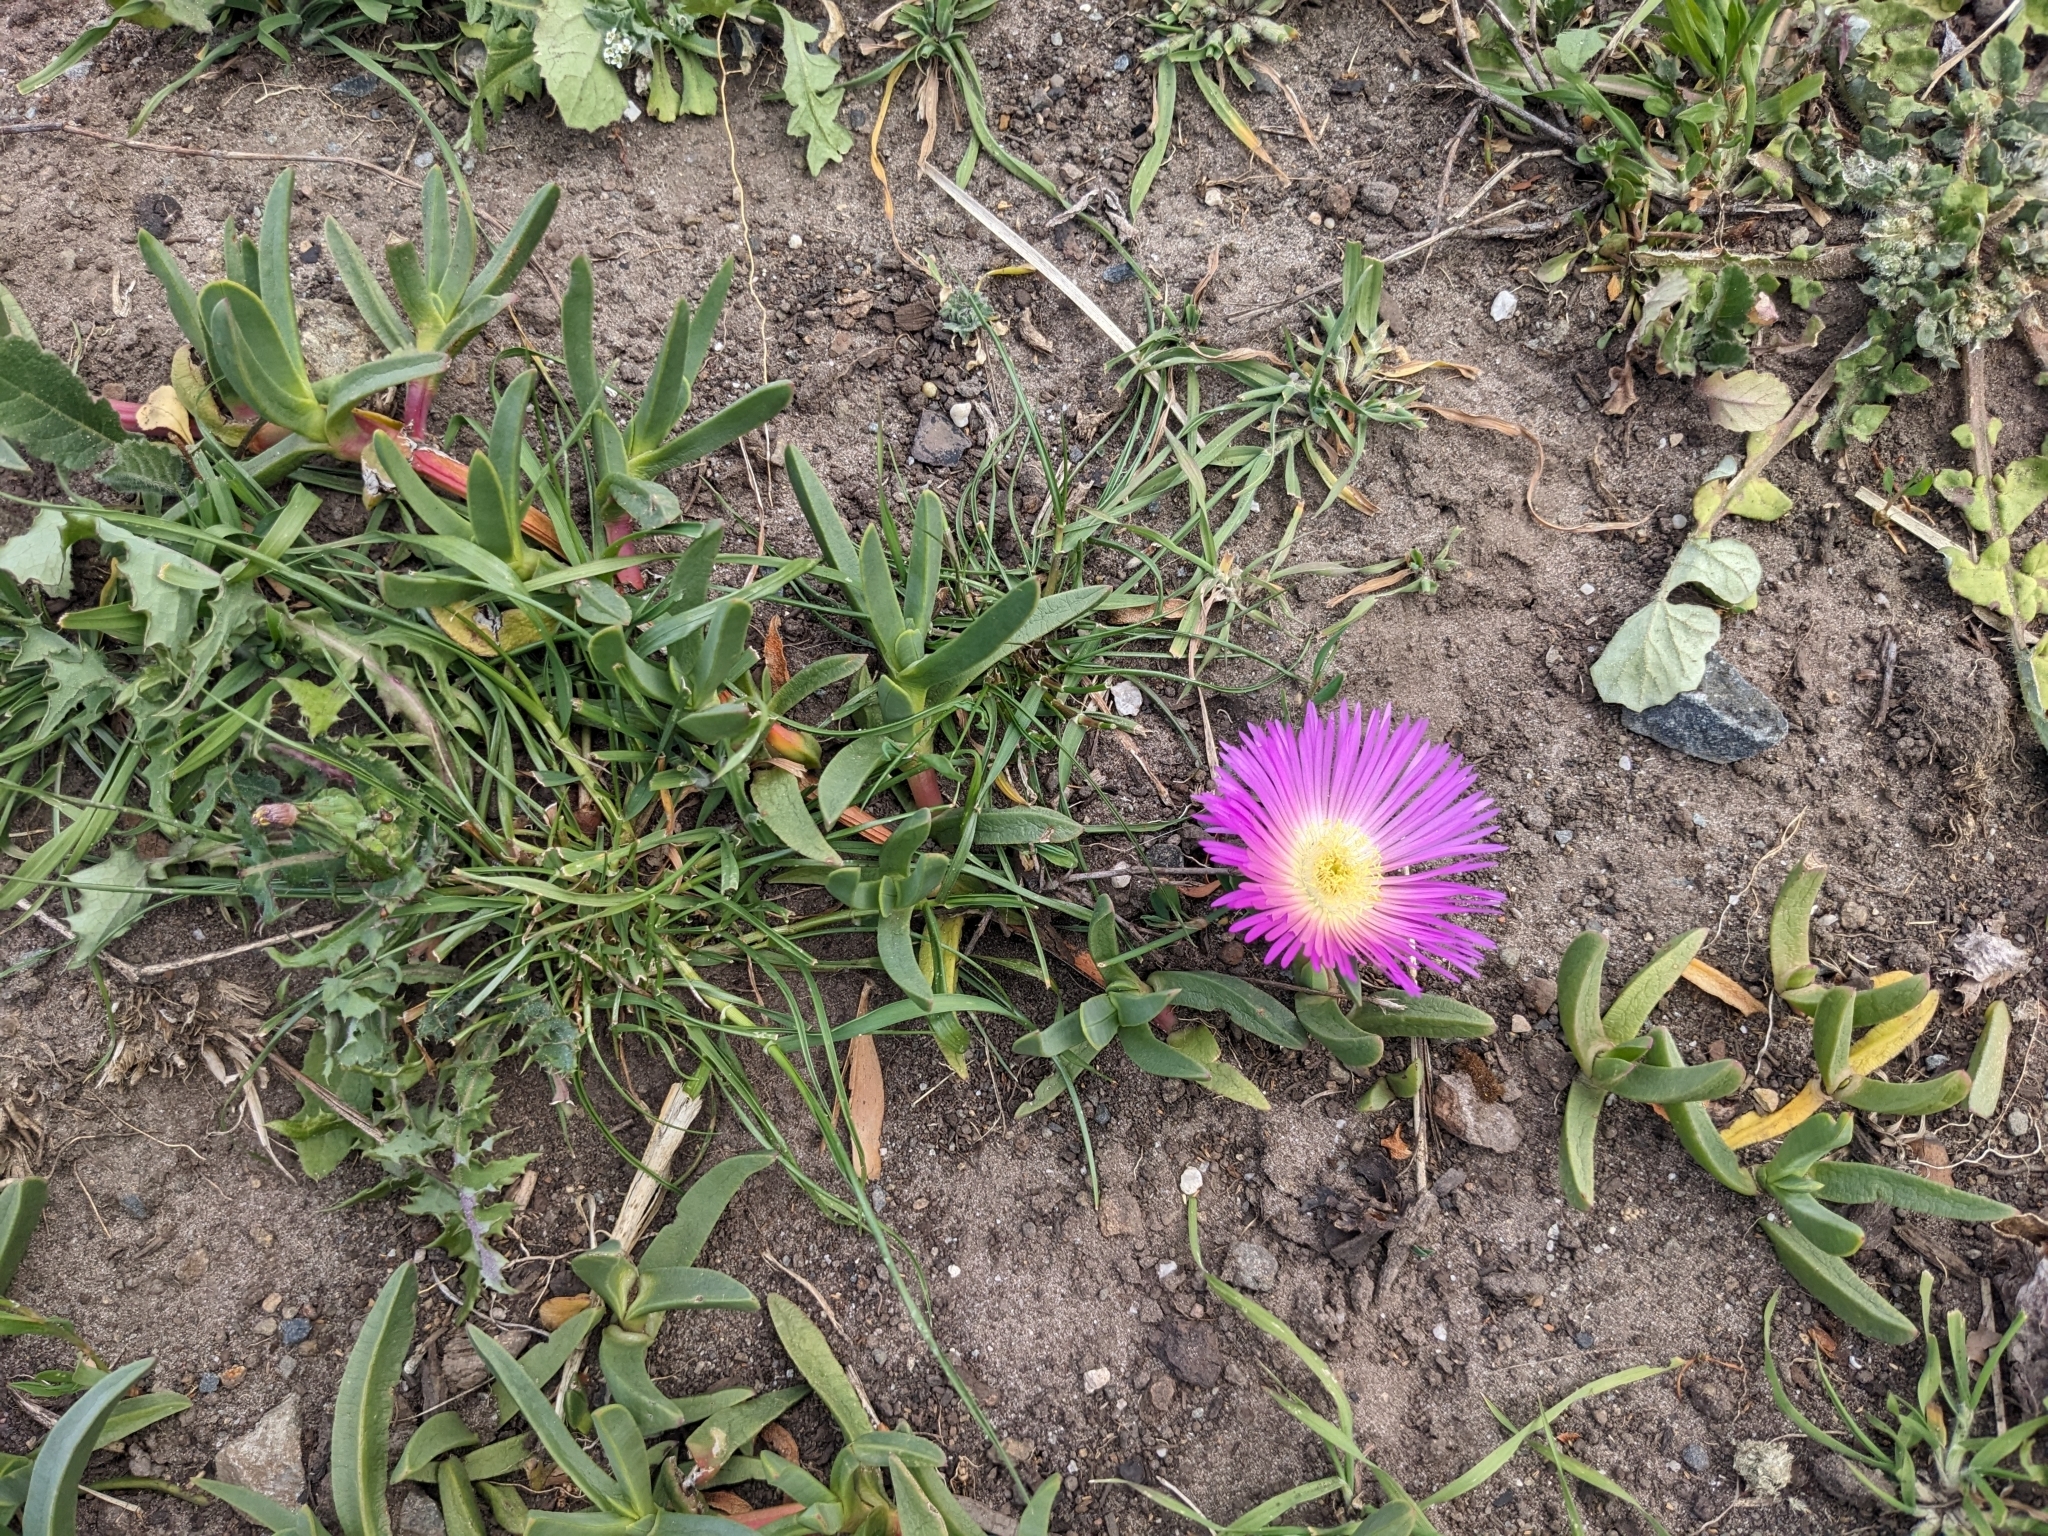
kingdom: Plantae
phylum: Tracheophyta
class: Magnoliopsida
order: Caryophyllales
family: Aizoaceae
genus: Carpobrotus
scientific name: Carpobrotus rossii
